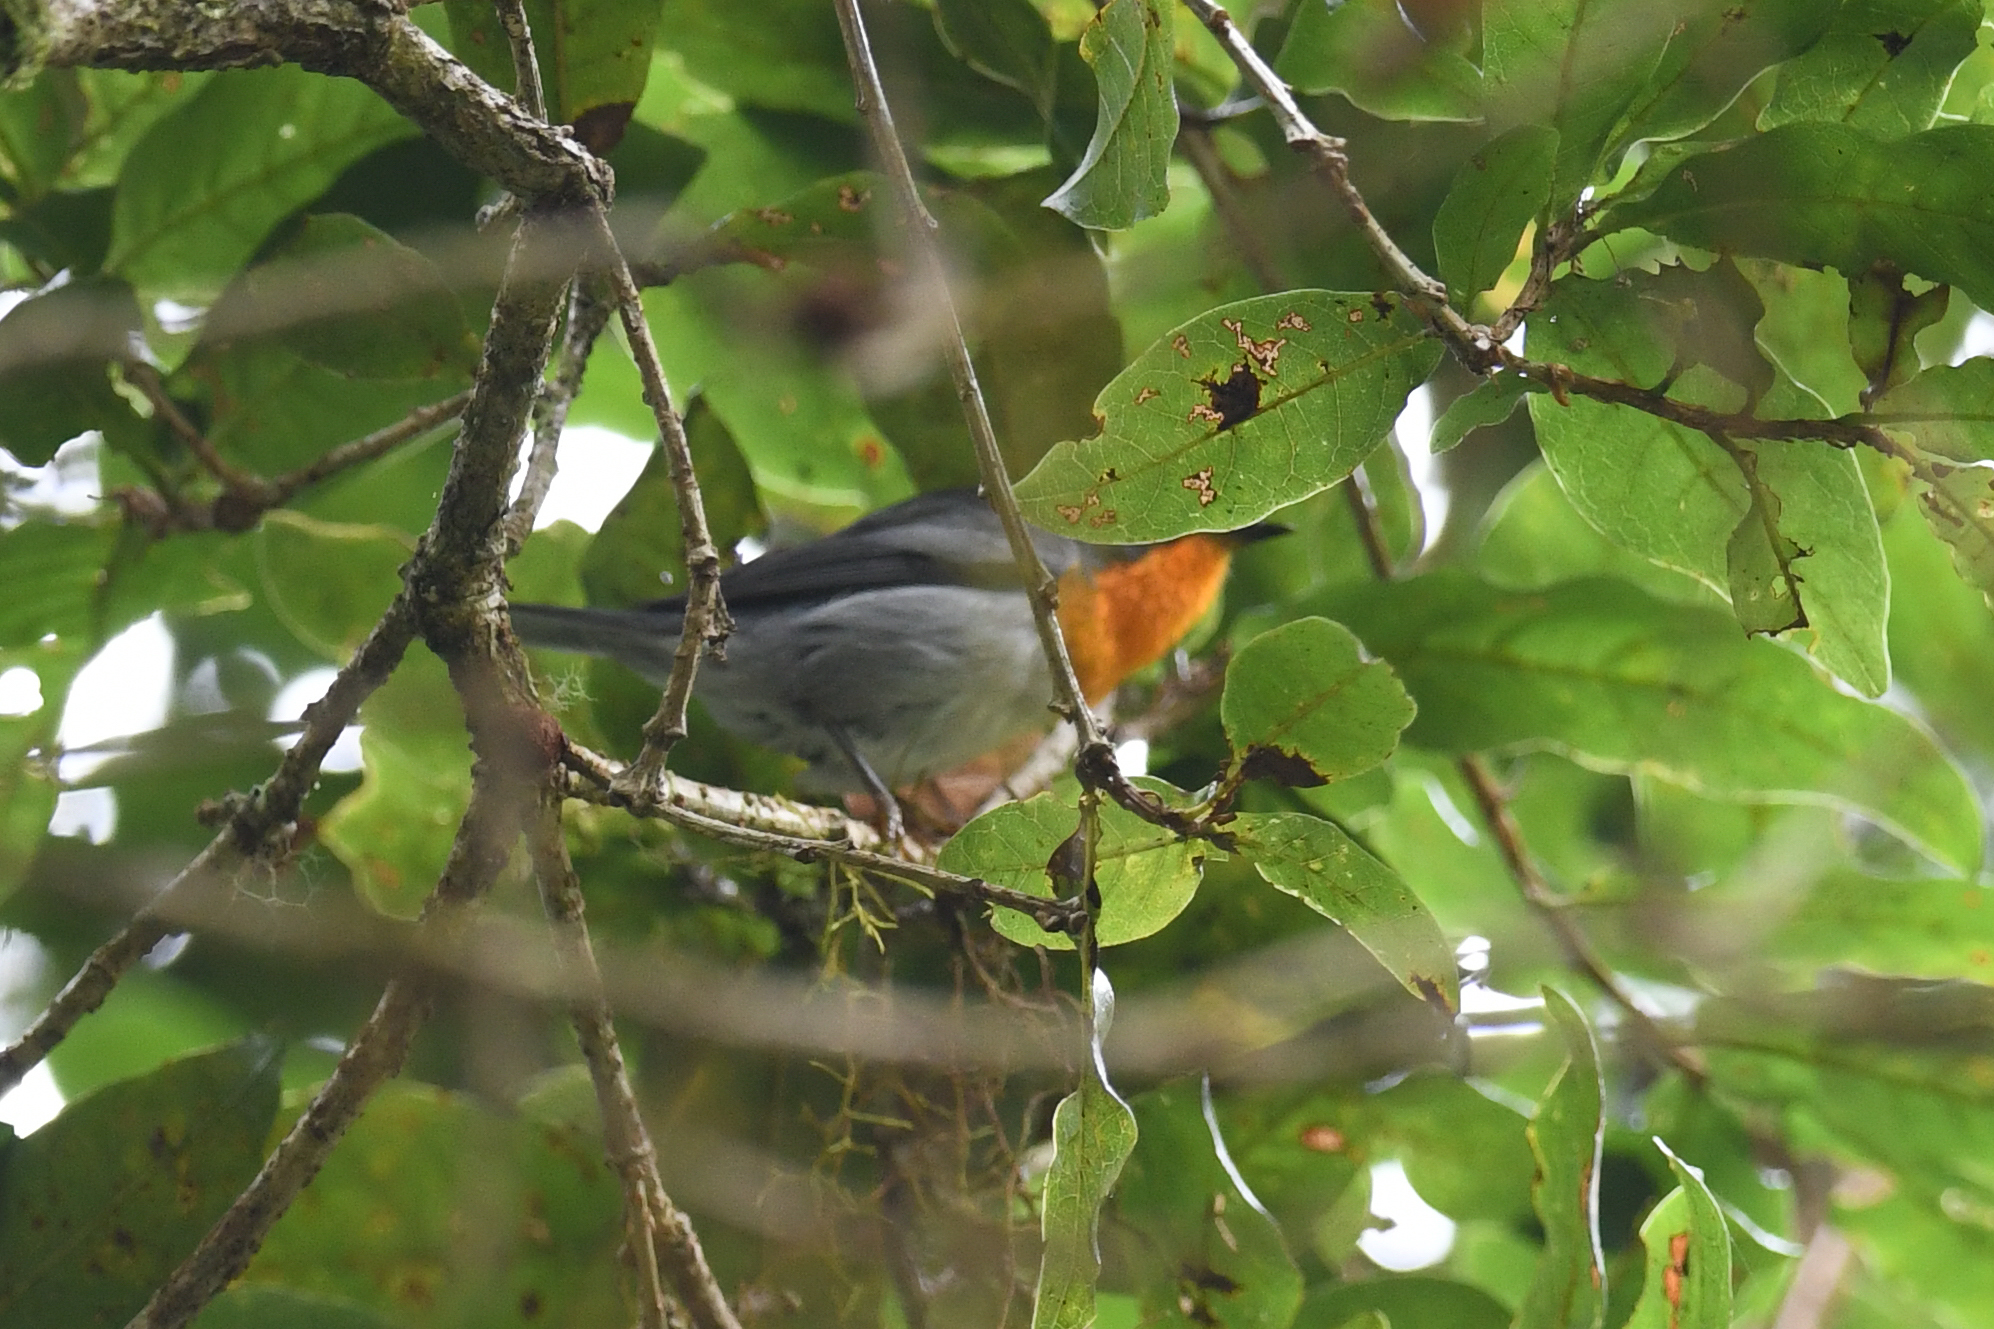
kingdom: Animalia
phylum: Chordata
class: Aves
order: Passeriformes
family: Parulidae
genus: Oreothlypis
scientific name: Oreothlypis gutturalis
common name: Flame-throated warbler
